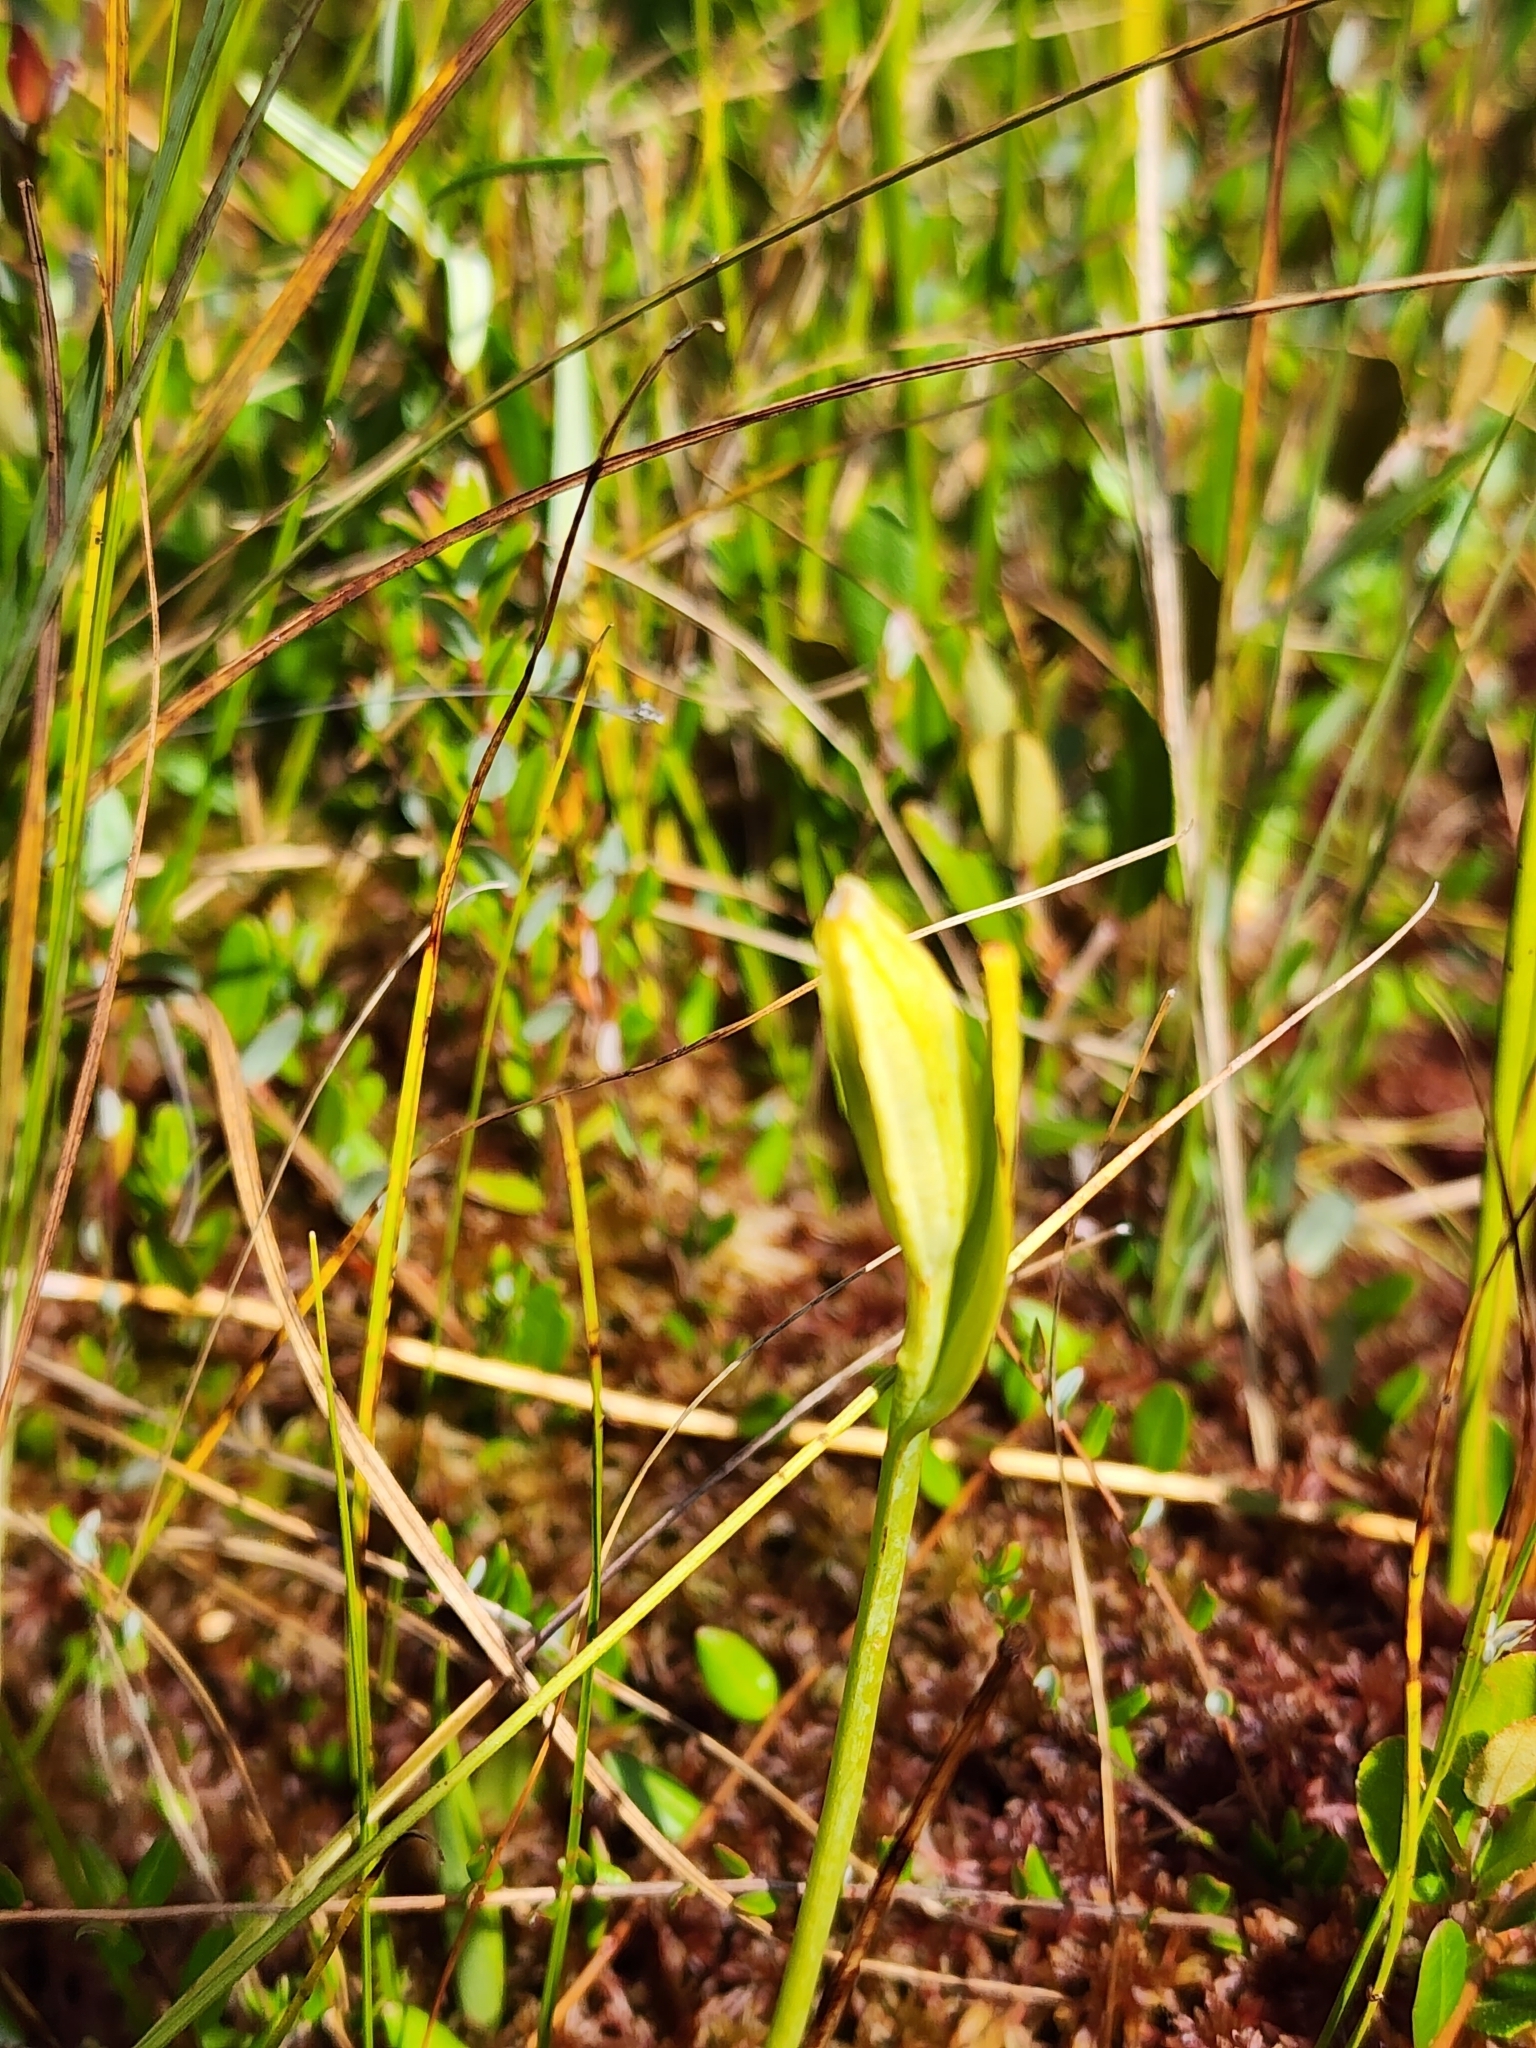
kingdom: Plantae
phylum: Tracheophyta
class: Liliopsida
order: Asparagales
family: Orchidaceae
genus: Pogonia
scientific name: Pogonia ophioglossoides
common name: Rose pogonia
